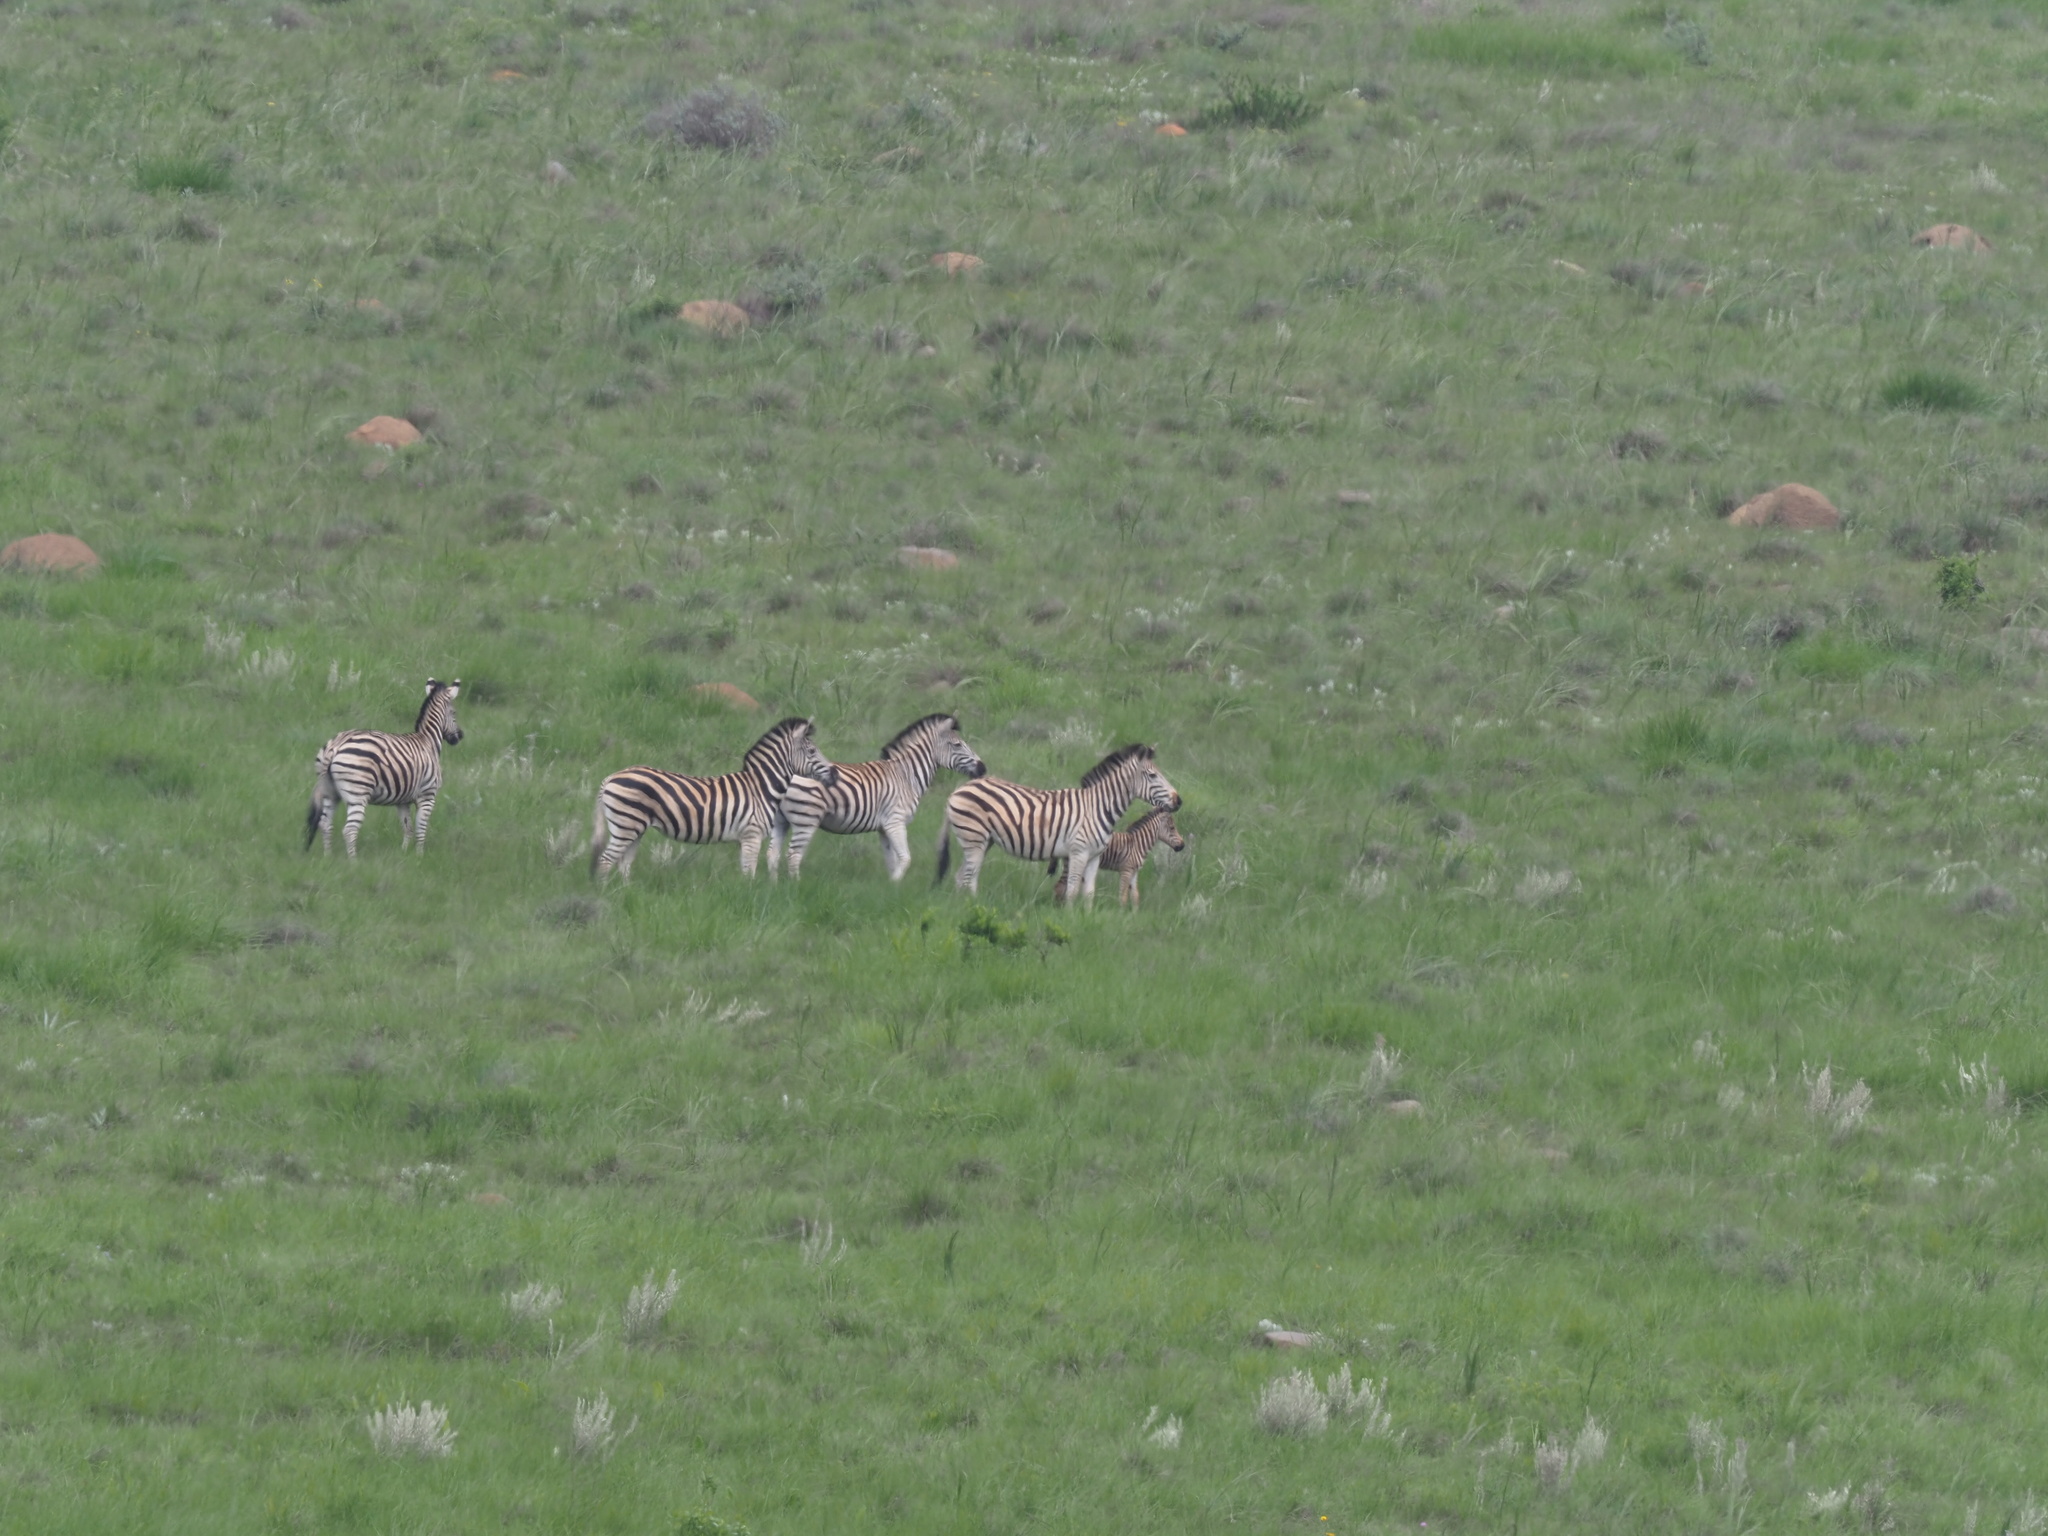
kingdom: Animalia
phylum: Chordata
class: Mammalia
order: Perissodactyla
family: Equidae
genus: Equus
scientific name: Equus quagga
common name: Plains zebra
